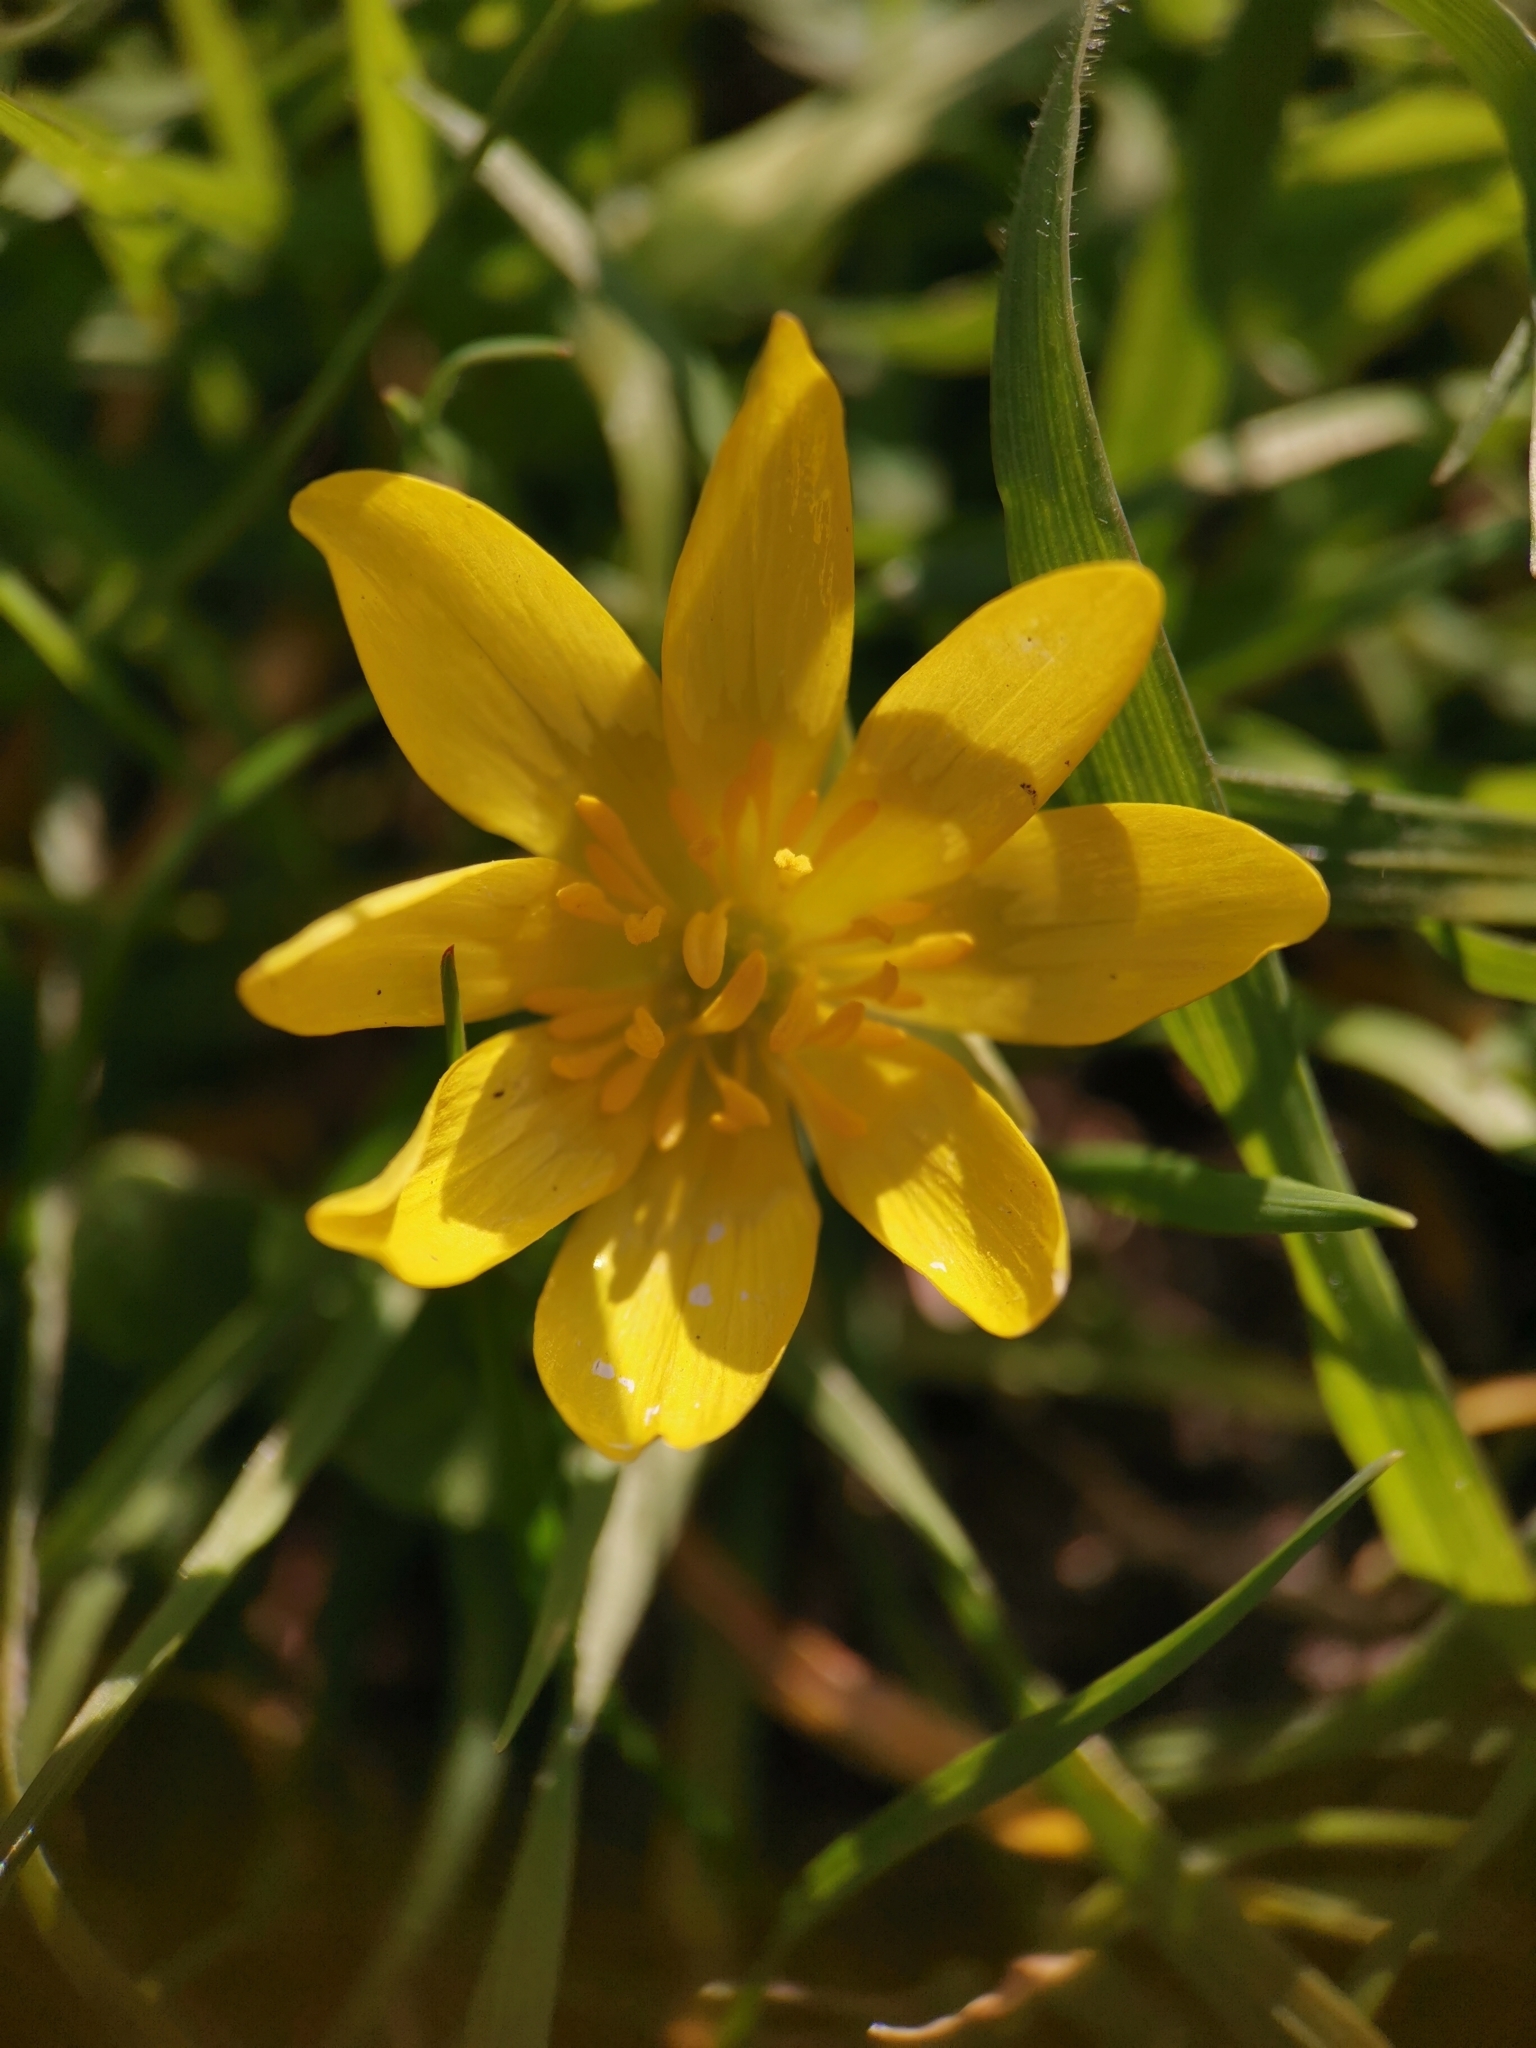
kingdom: Plantae
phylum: Tracheophyta
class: Magnoliopsida
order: Ranunculales
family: Ranunculaceae
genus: Ficaria
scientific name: Ficaria verna
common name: Lesser celandine
